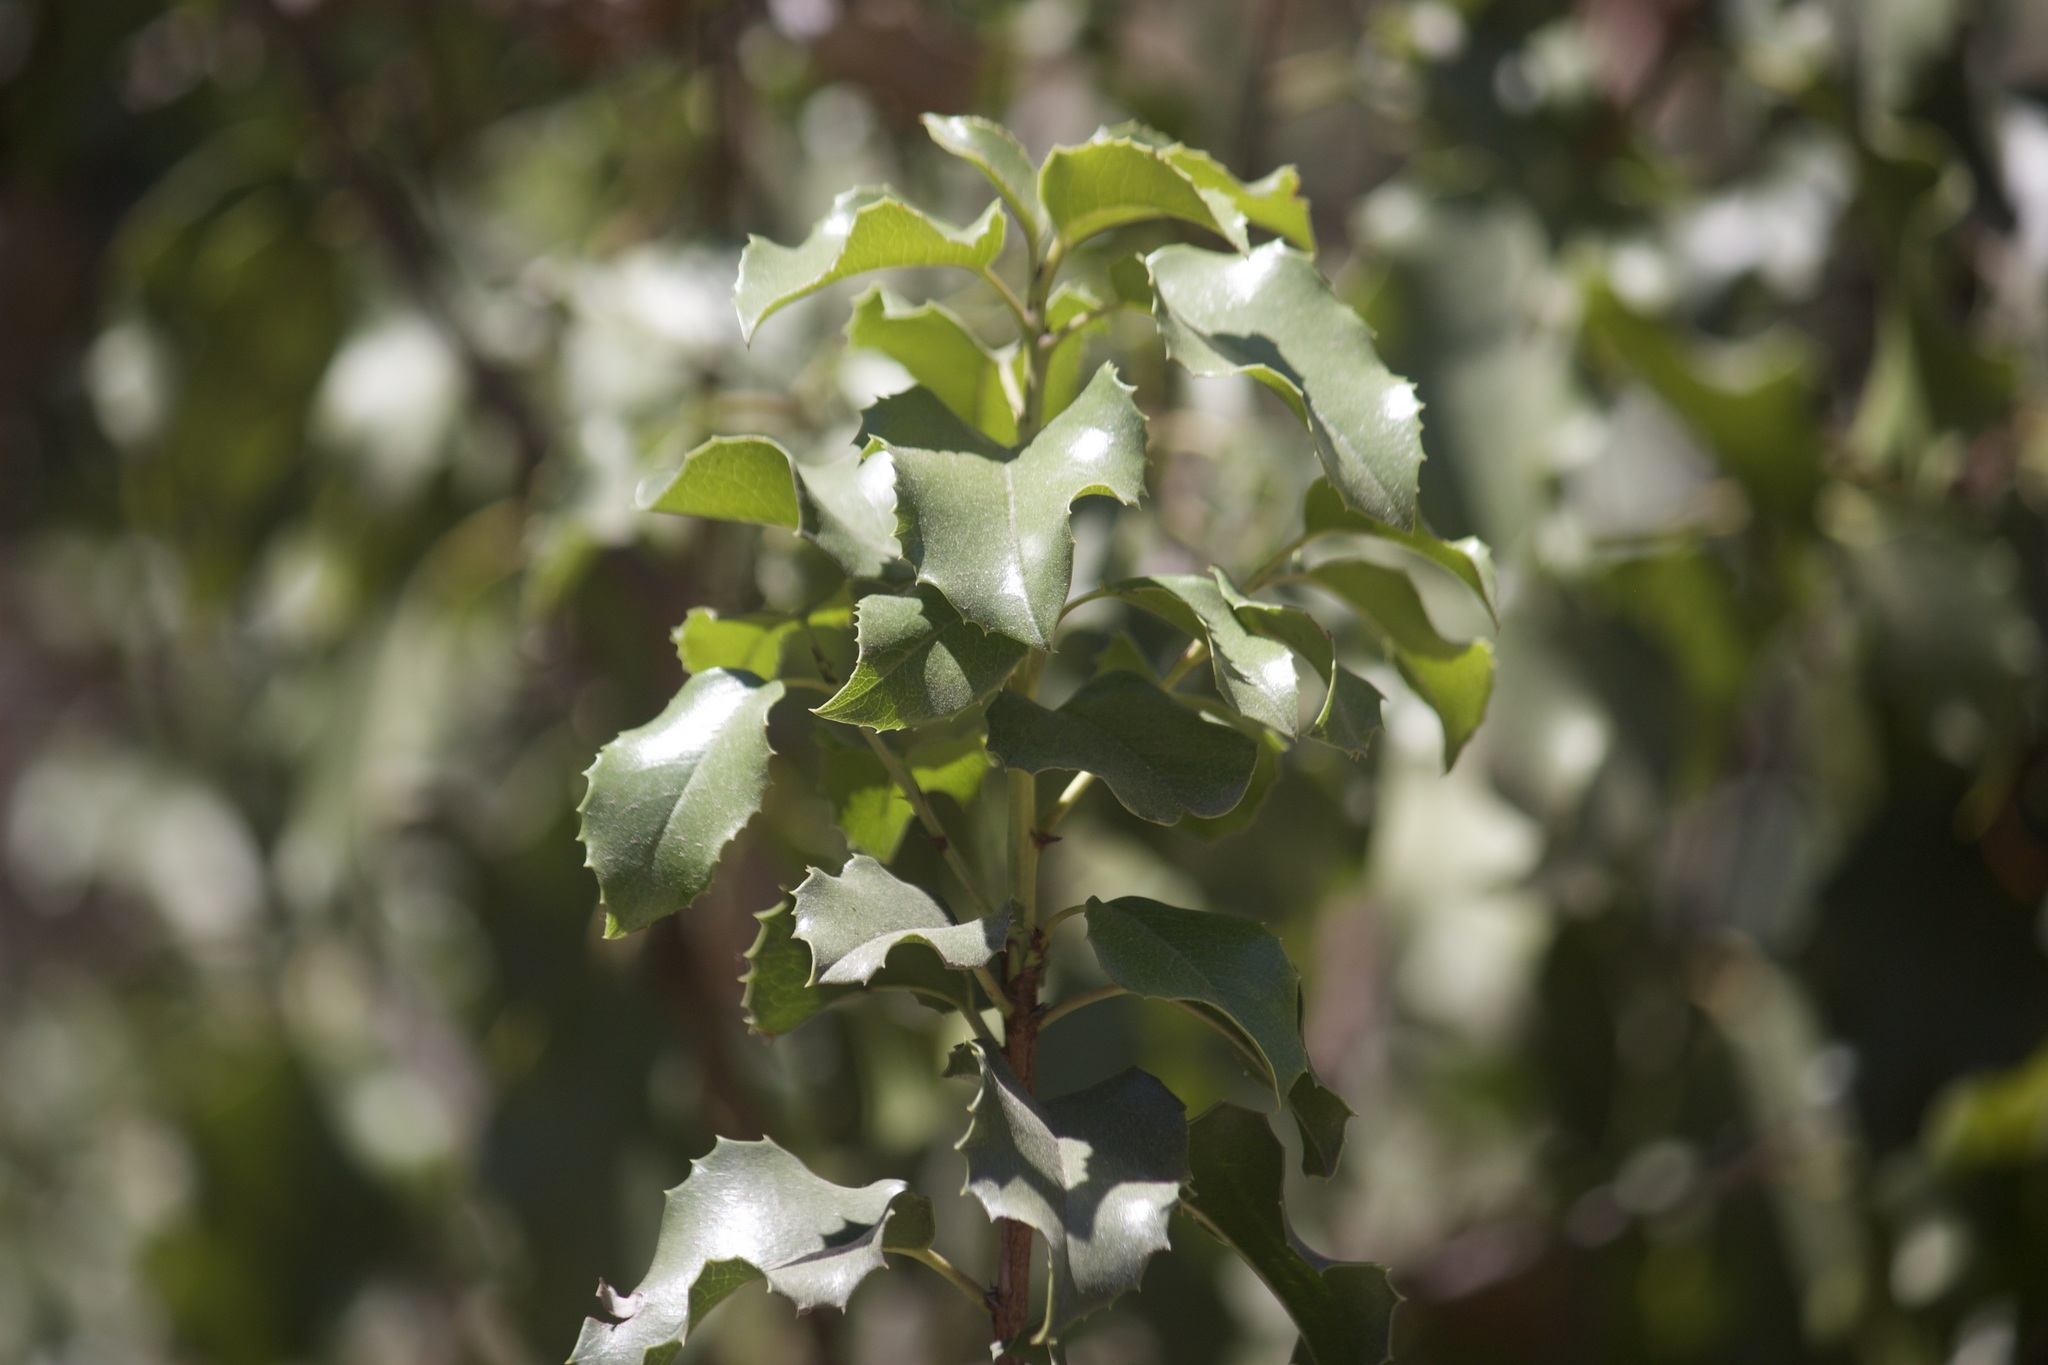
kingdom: Plantae
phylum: Tracheophyta
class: Magnoliopsida
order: Rosales
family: Rosaceae
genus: Prunus
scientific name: Prunus ilicifolia
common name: Hollyleaf cherry
